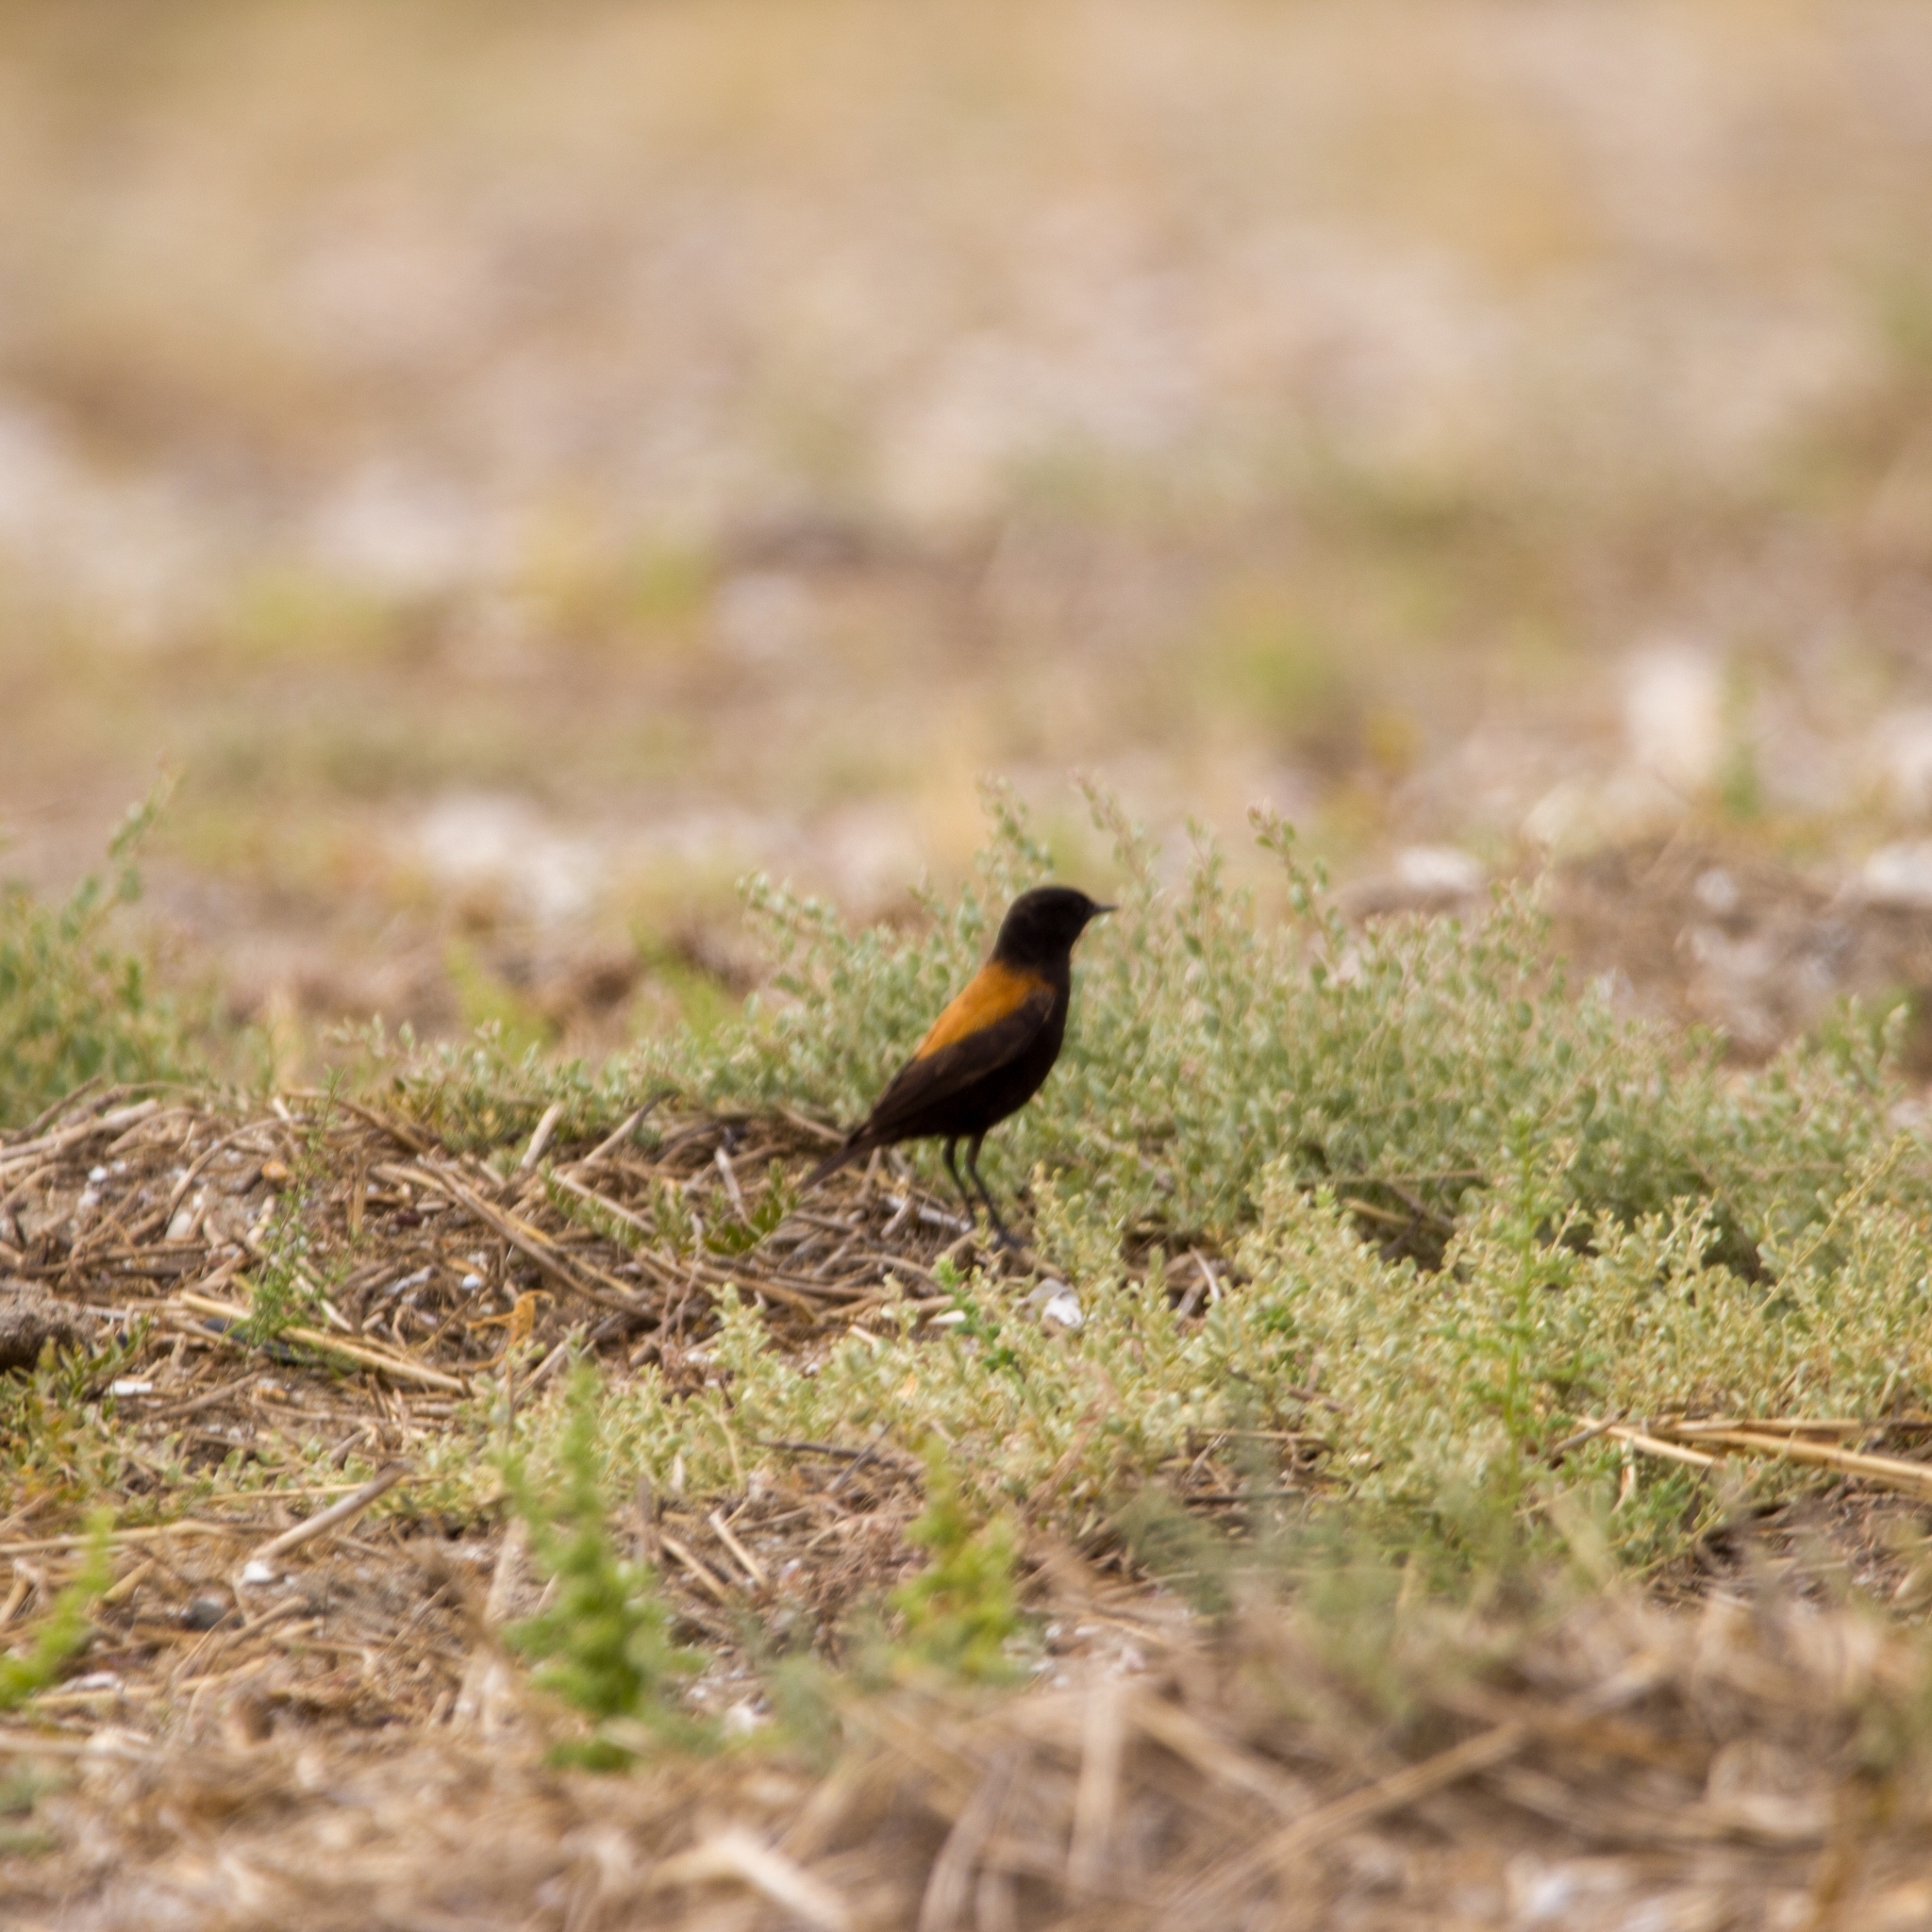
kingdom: Animalia
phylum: Chordata
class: Aves
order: Passeriformes
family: Tyrannidae
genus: Lessonia
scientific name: Lessonia rufa
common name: Austral negrito
